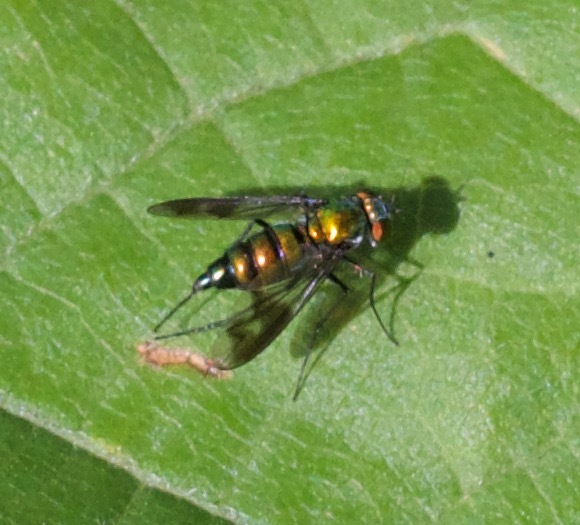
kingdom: Animalia
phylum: Arthropoda
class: Insecta
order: Diptera
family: Dolichopodidae
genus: Condylostylus
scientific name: Condylostylus patibulatus
